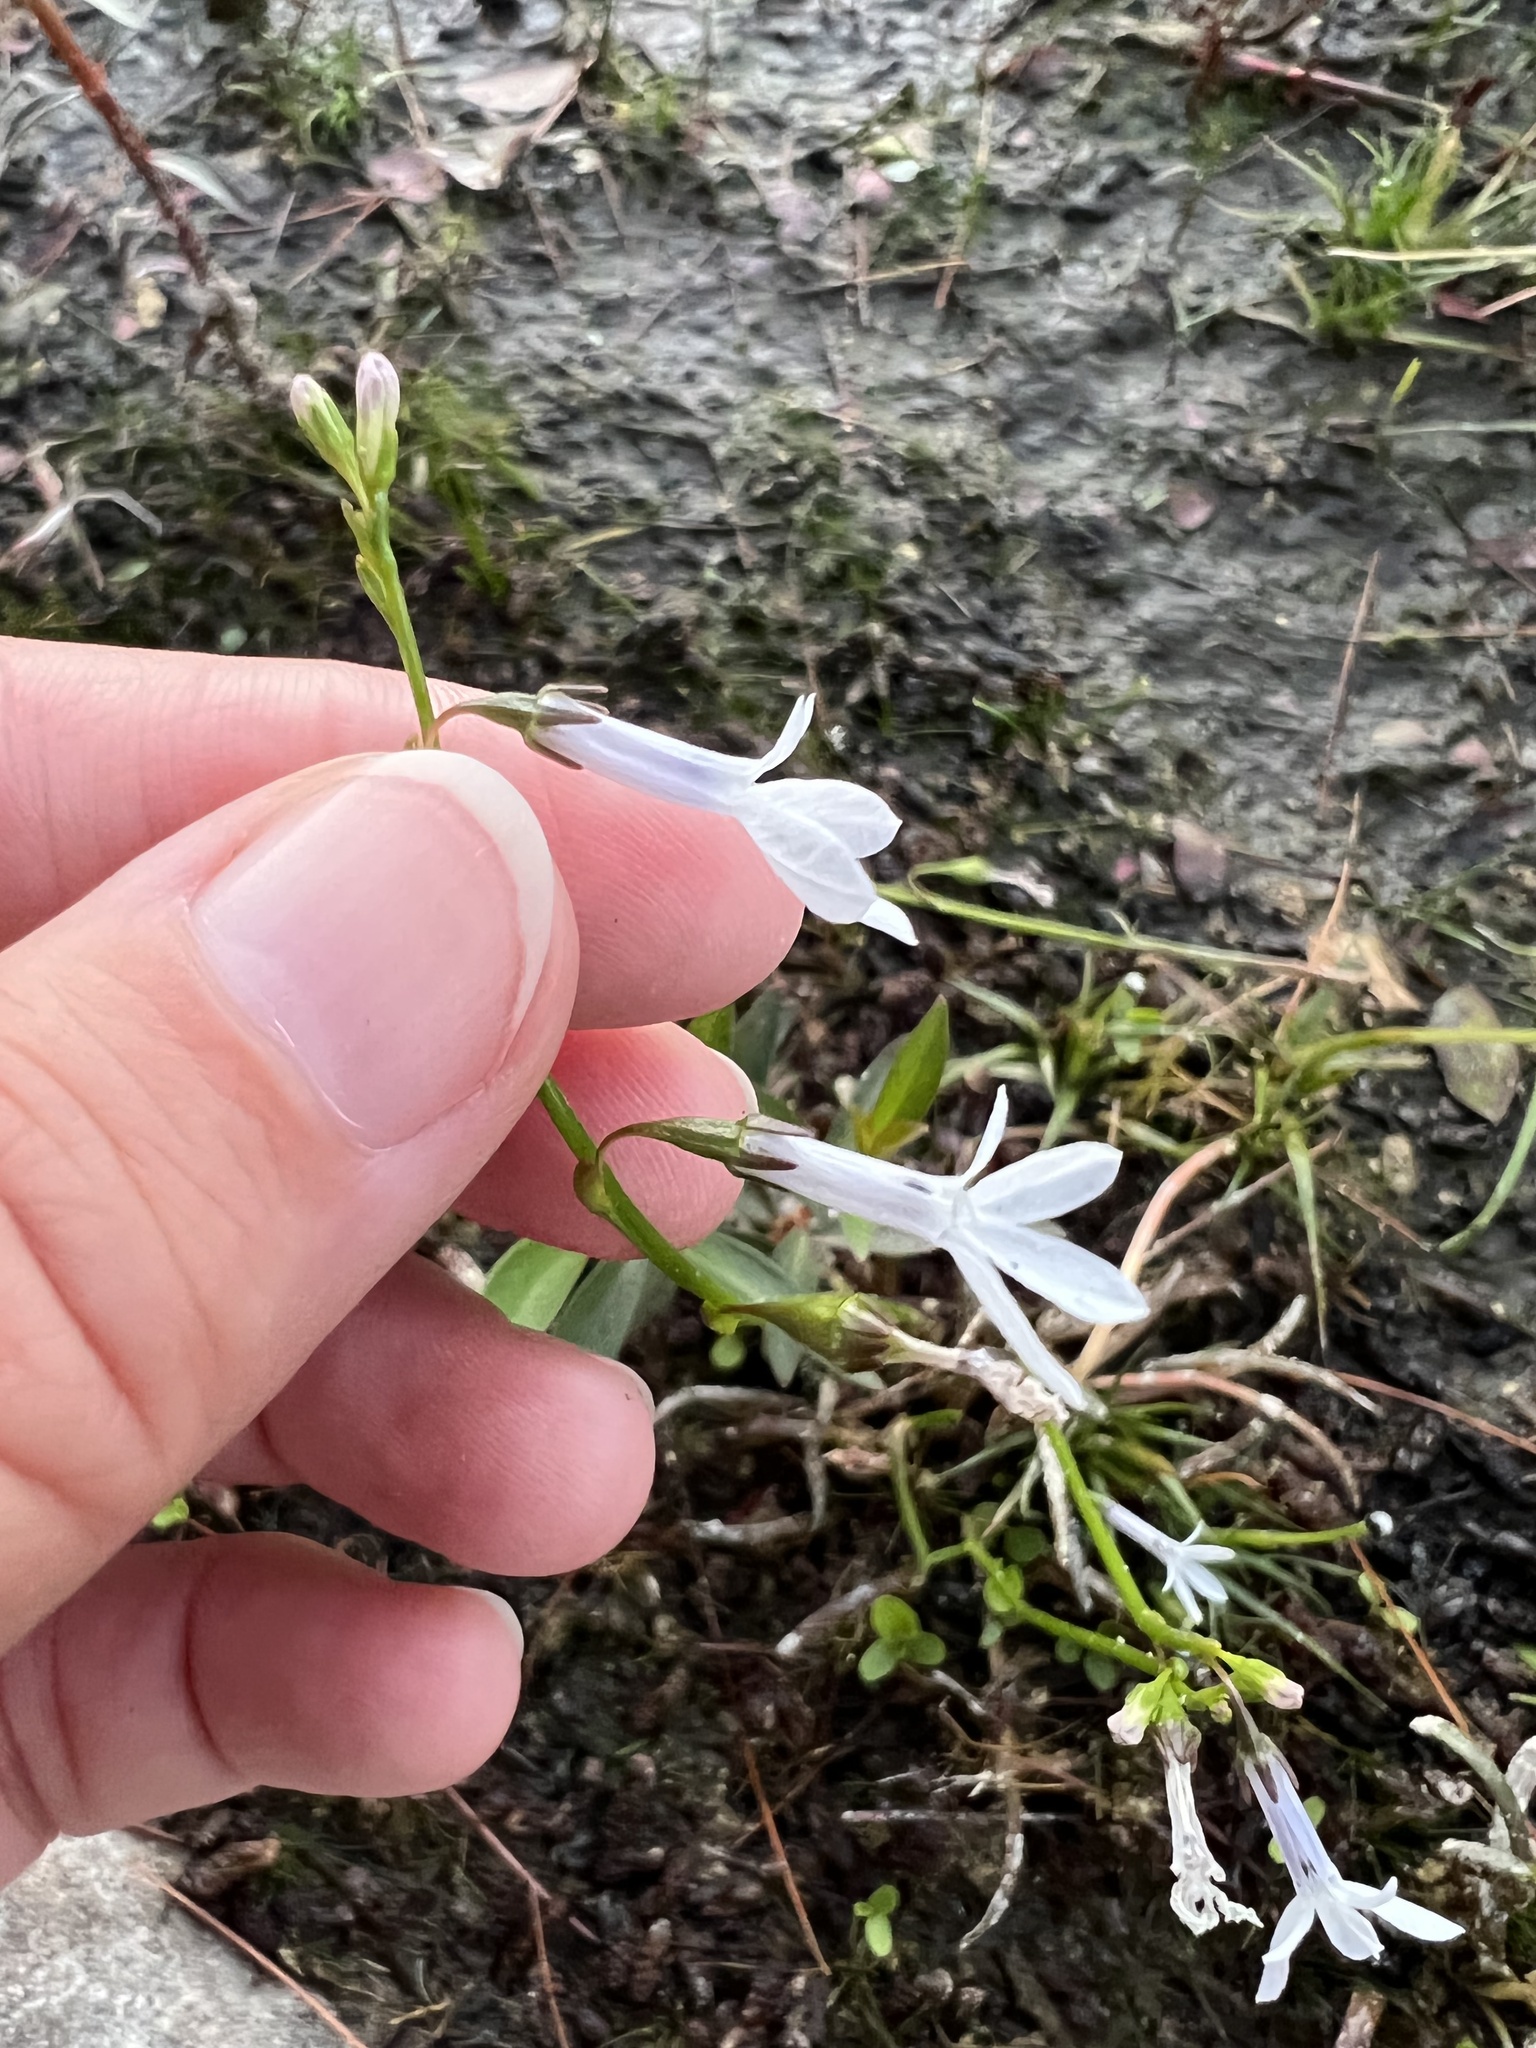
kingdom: Plantae
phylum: Tracheophyta
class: Magnoliopsida
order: Asterales
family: Campanulaceae
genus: Lobelia
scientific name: Lobelia dortmanna
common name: Water lobelia
